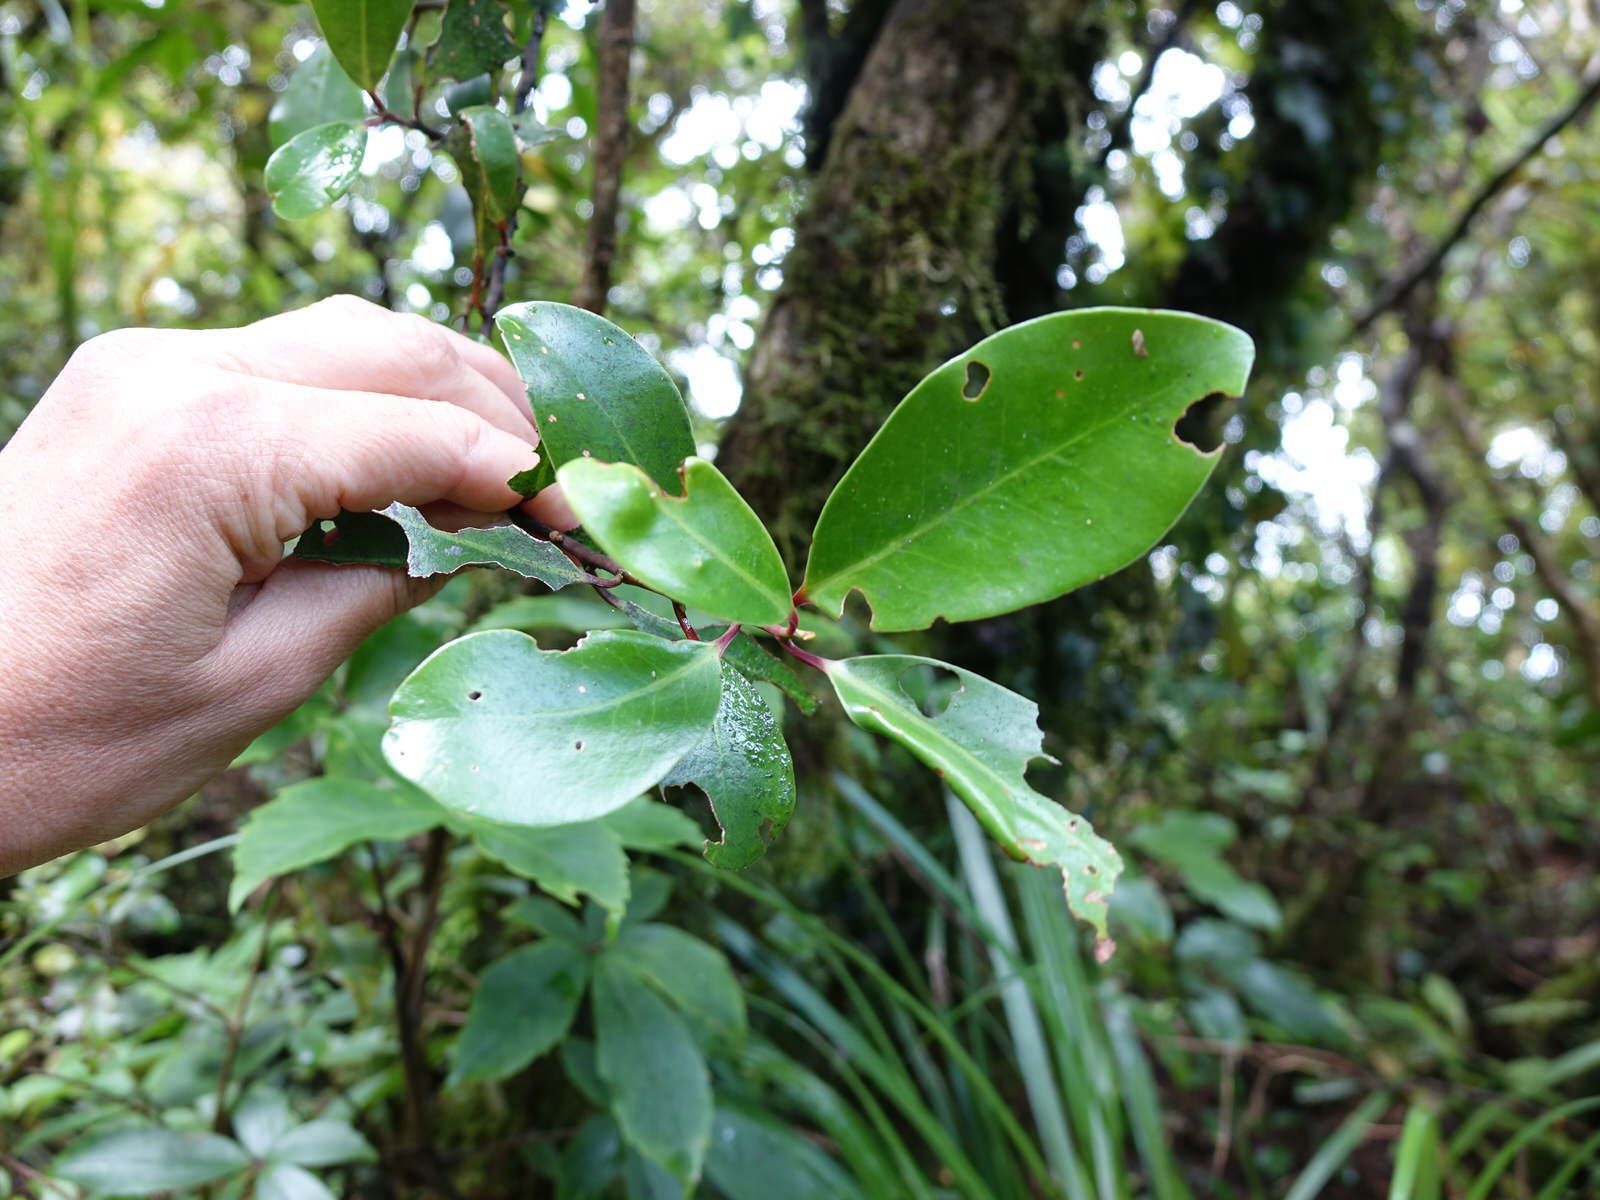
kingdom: Plantae
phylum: Tracheophyta
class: Magnoliopsida
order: Canellales
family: Winteraceae
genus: Pseudowintera
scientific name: Pseudowintera axillaris
